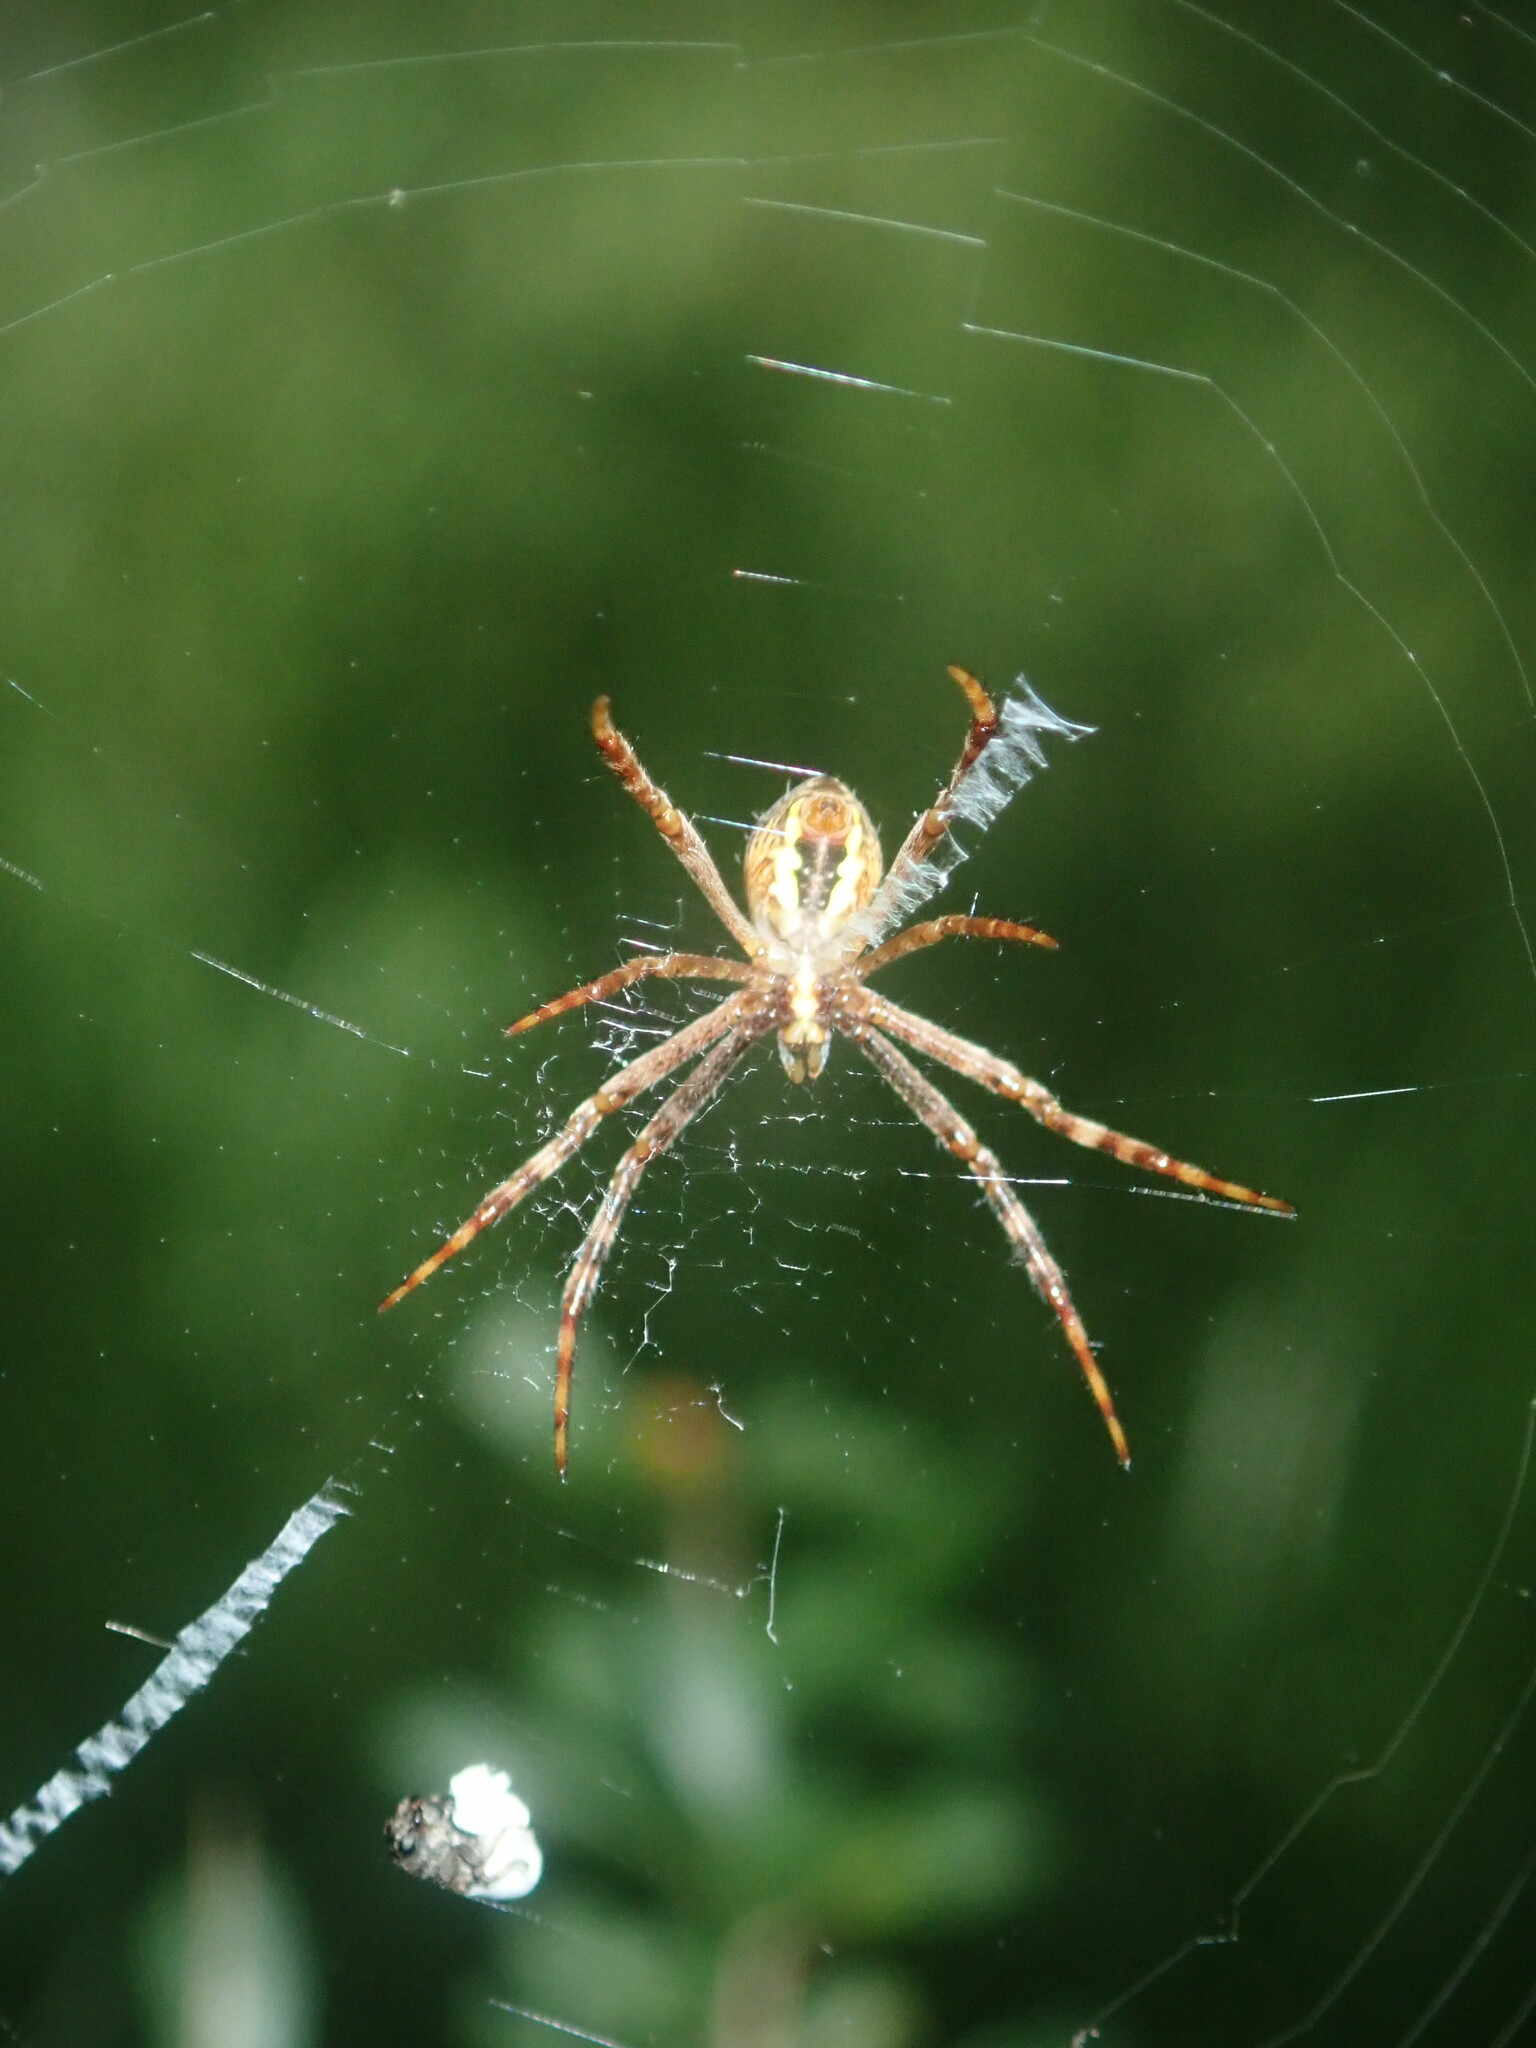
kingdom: Animalia
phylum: Arthropoda
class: Arachnida
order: Araneae
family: Araneidae
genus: Argiope
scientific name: Argiope keyserlingi
